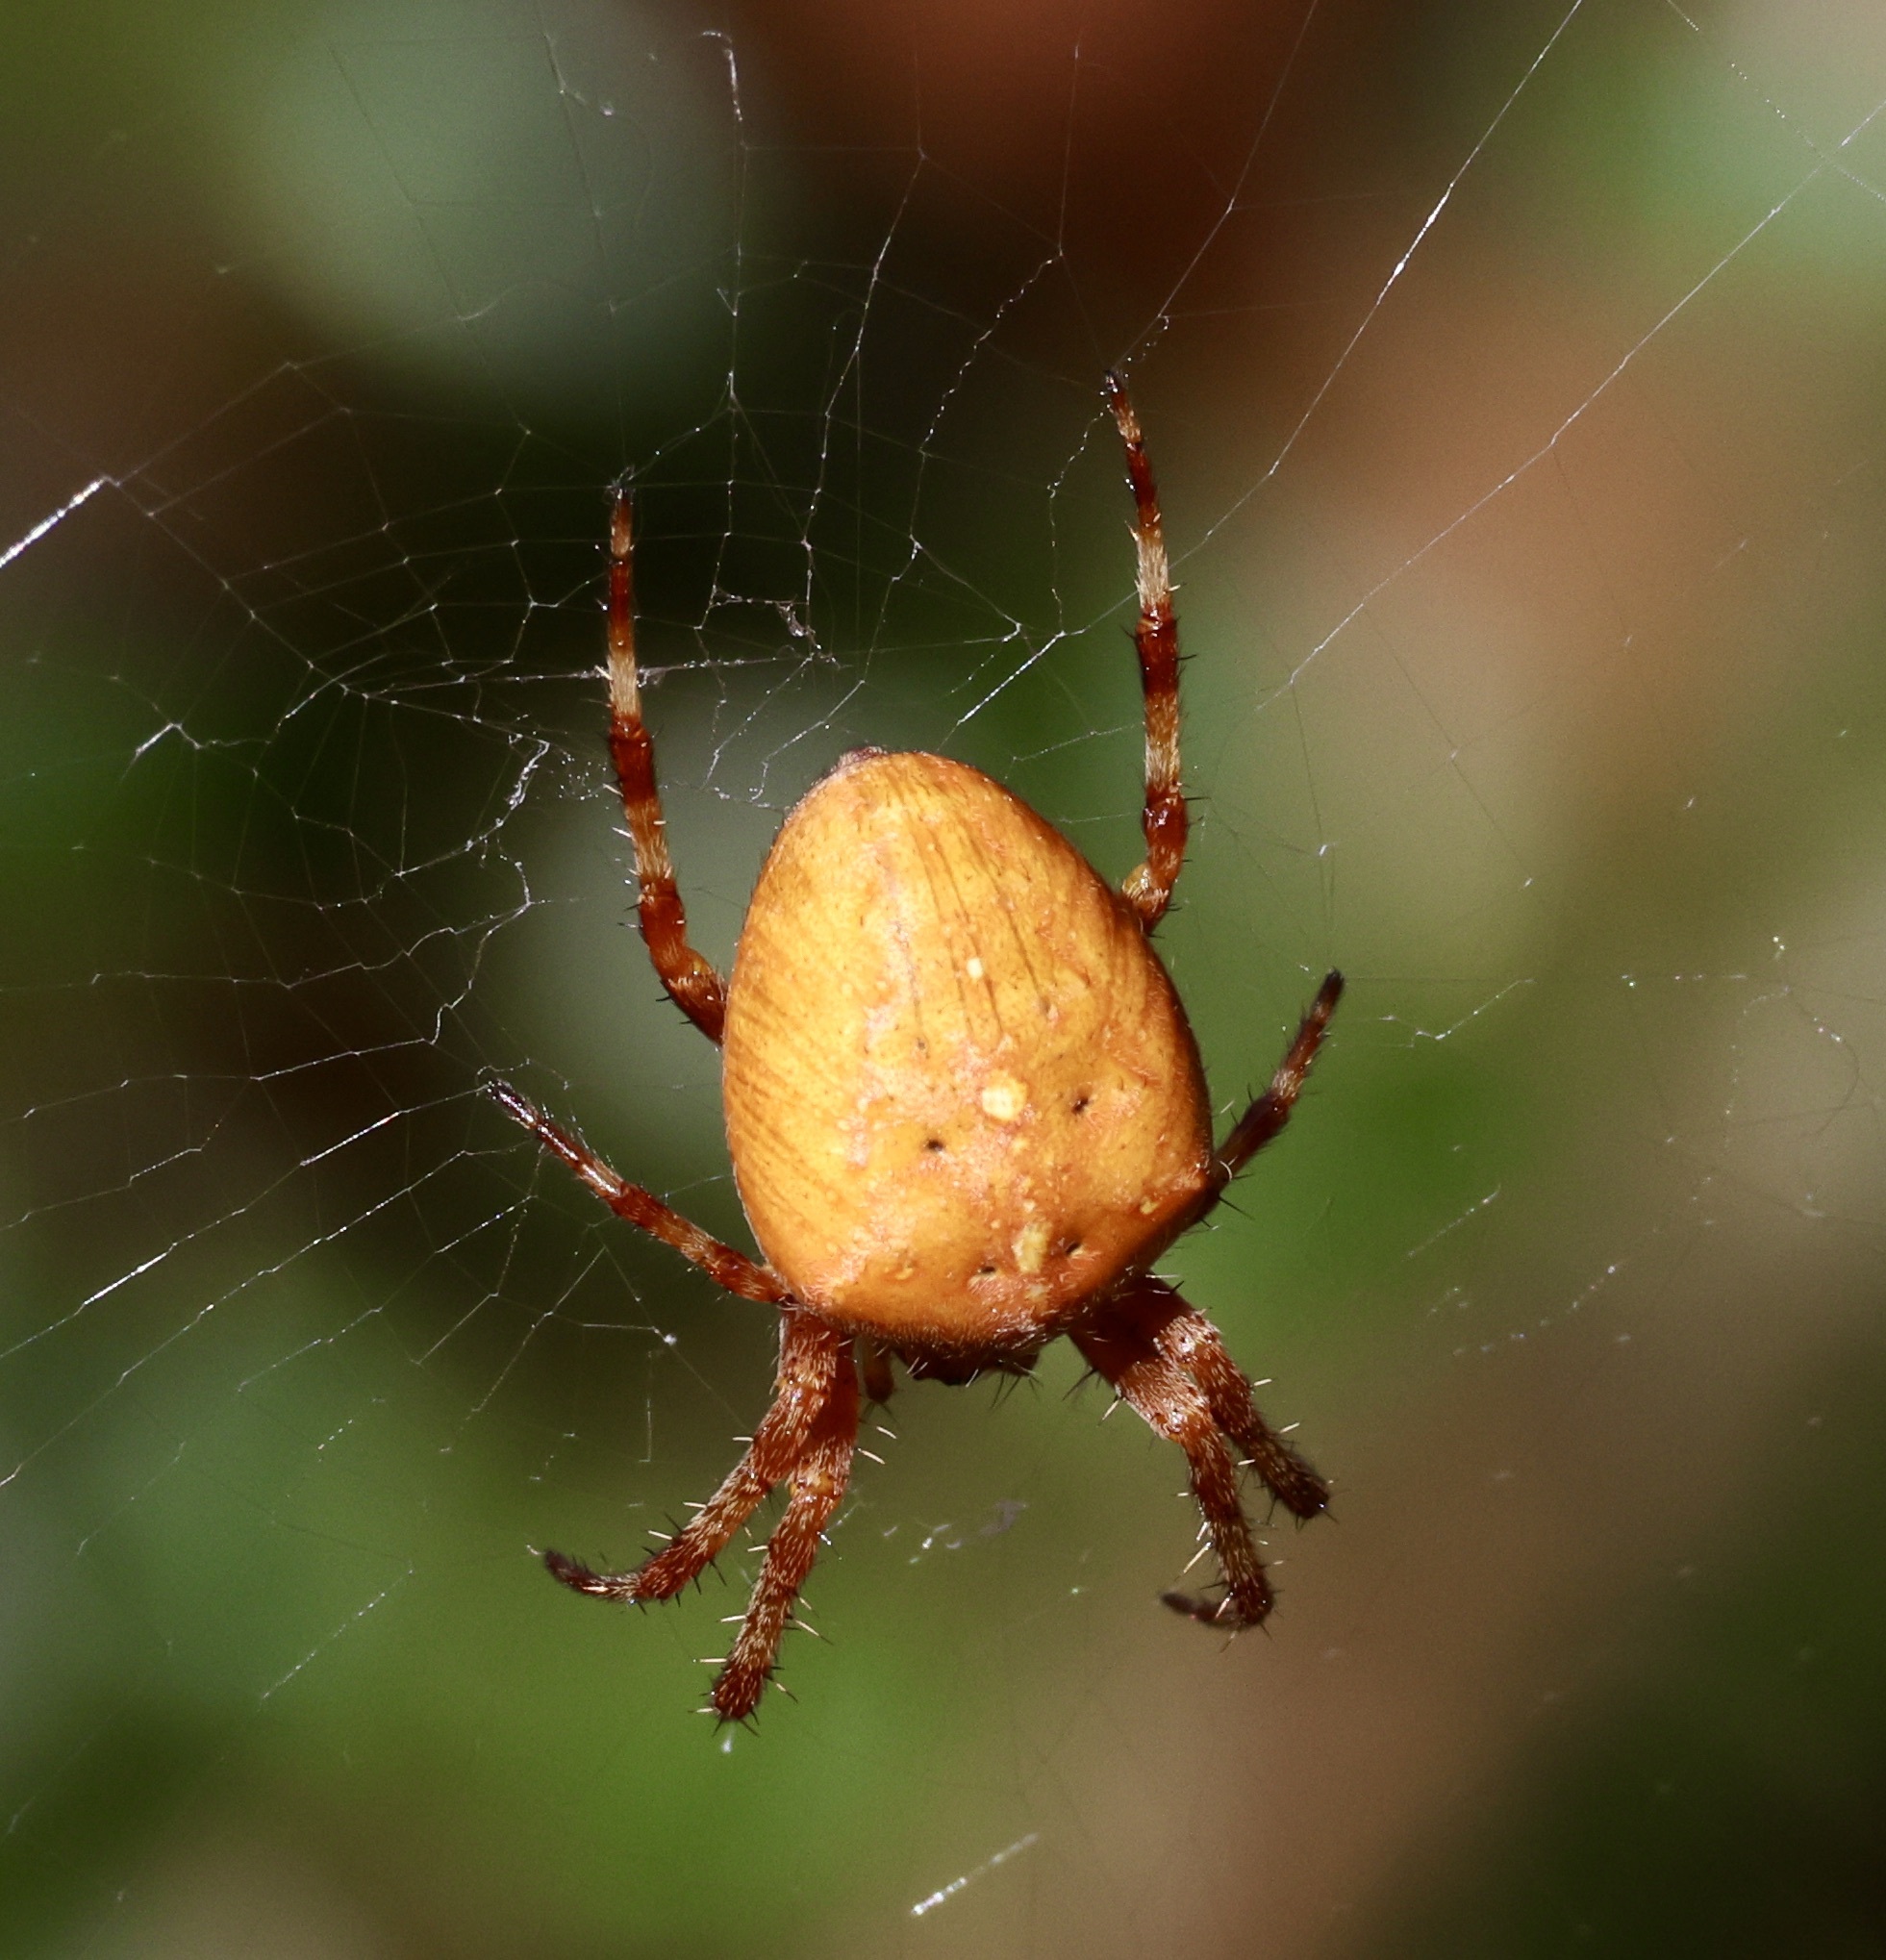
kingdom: Animalia
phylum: Arthropoda
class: Arachnida
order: Araneae
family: Araneidae
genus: Araneus
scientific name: Araneus diadematus
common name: Cross orbweaver
